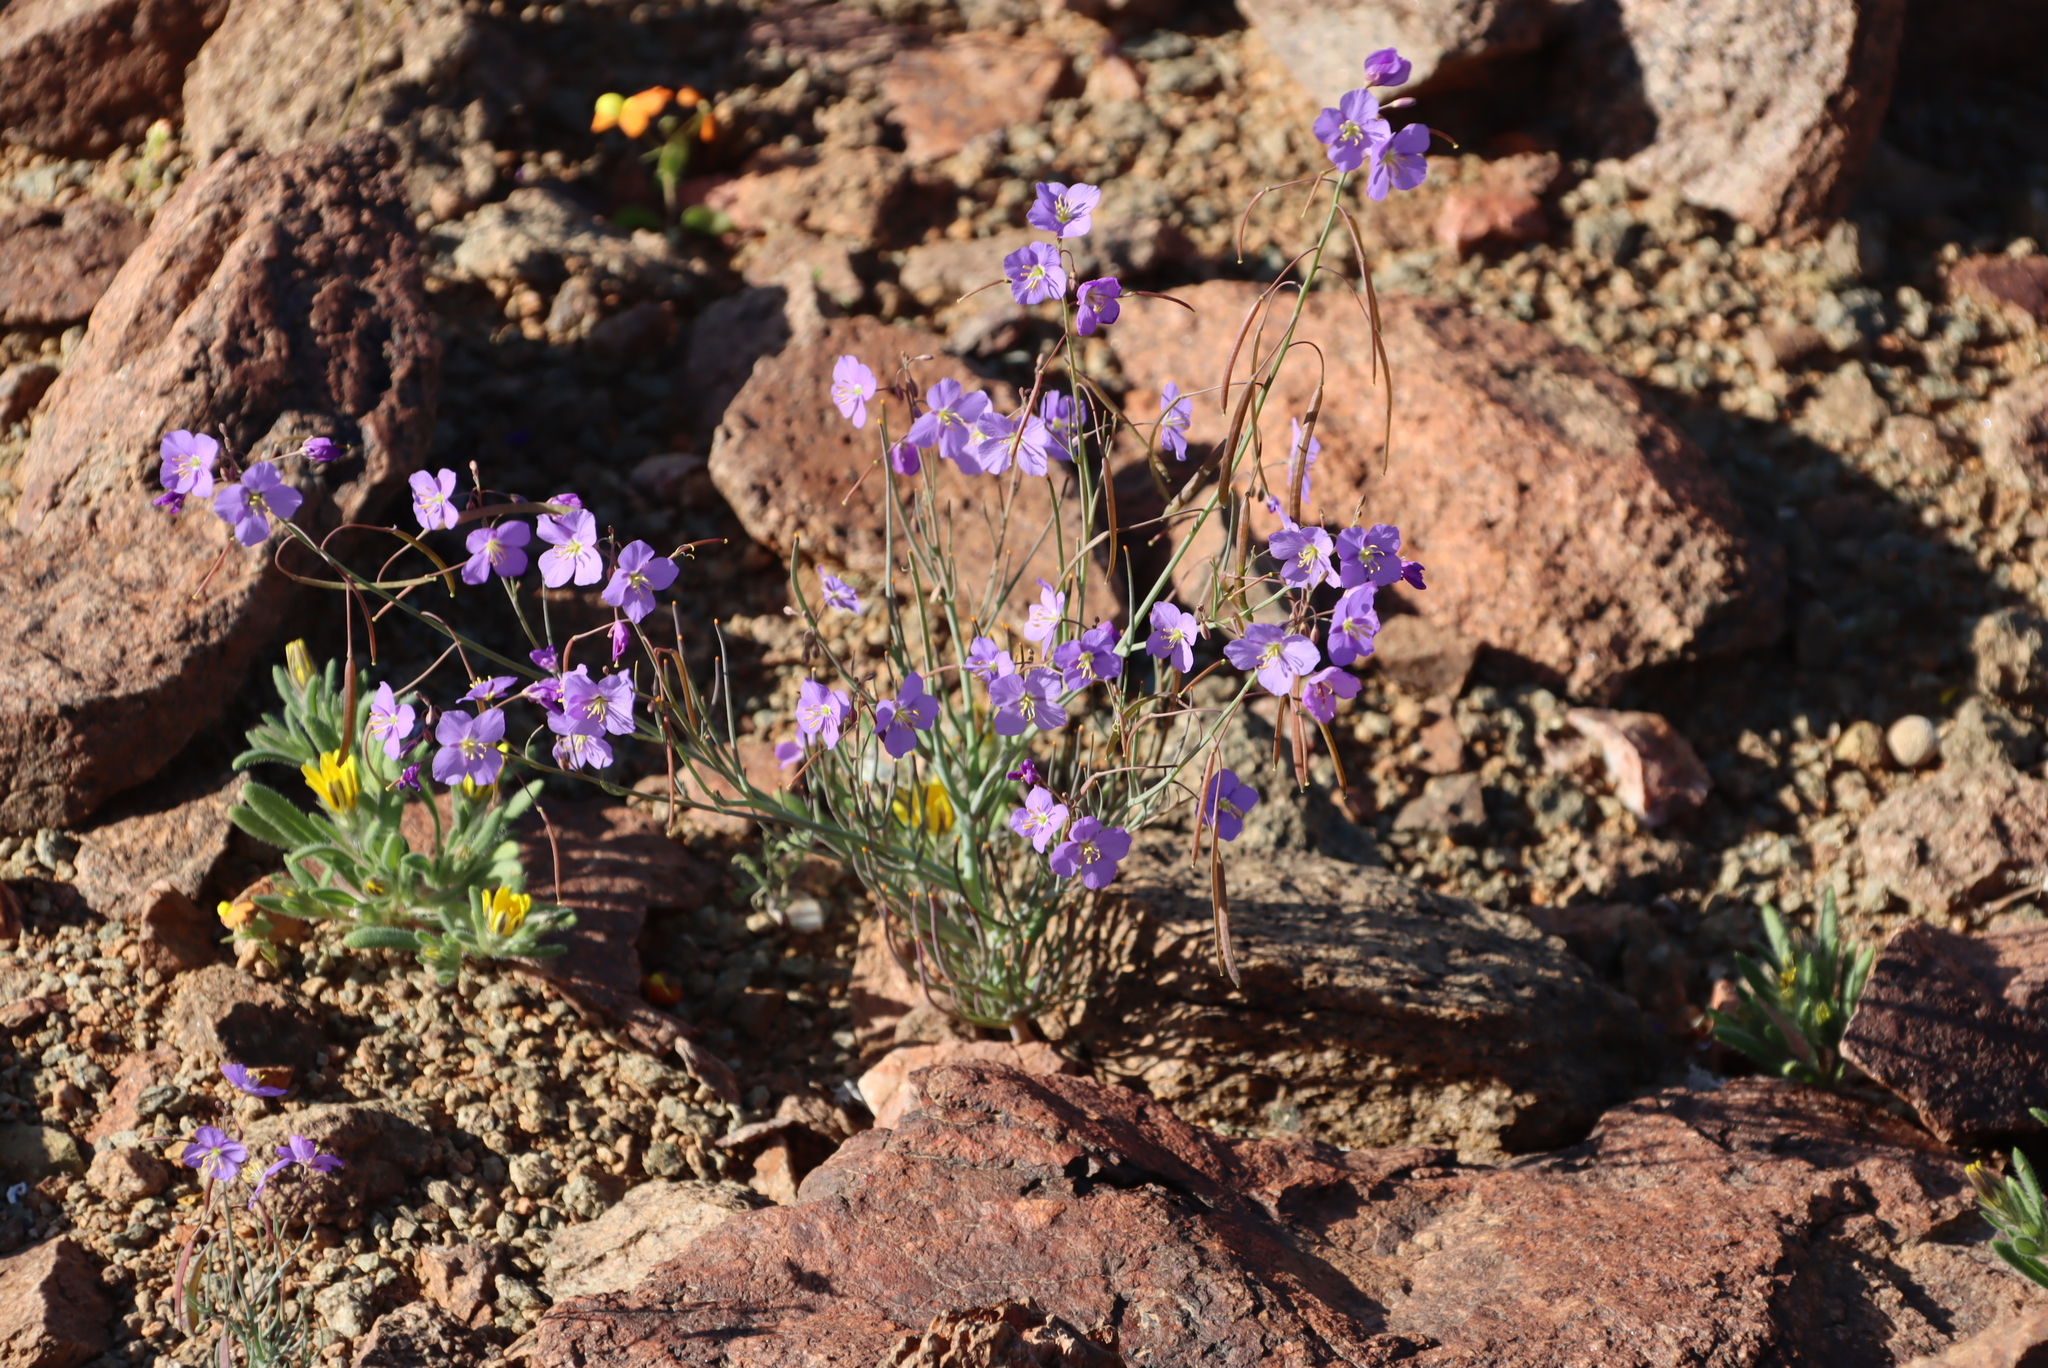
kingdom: Plantae
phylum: Tracheophyta
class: Magnoliopsida
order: Brassicales
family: Brassicaceae
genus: Heliophila
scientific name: Heliophila trifurca
